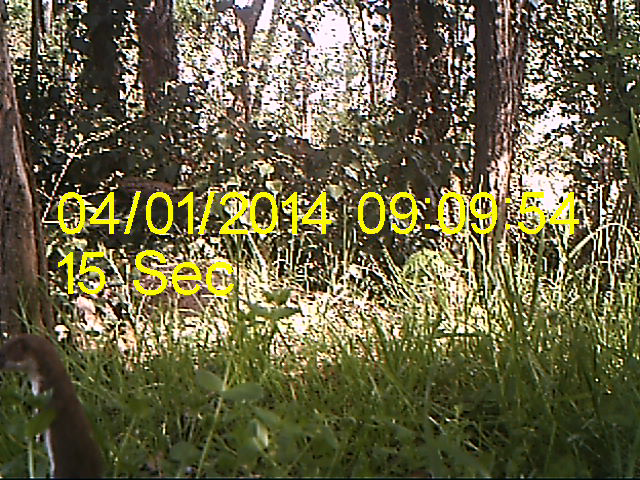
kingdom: Animalia
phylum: Chordata
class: Mammalia
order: Carnivora
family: Mustelidae
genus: Mustela
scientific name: Mustela nivalis
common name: Least weasel
